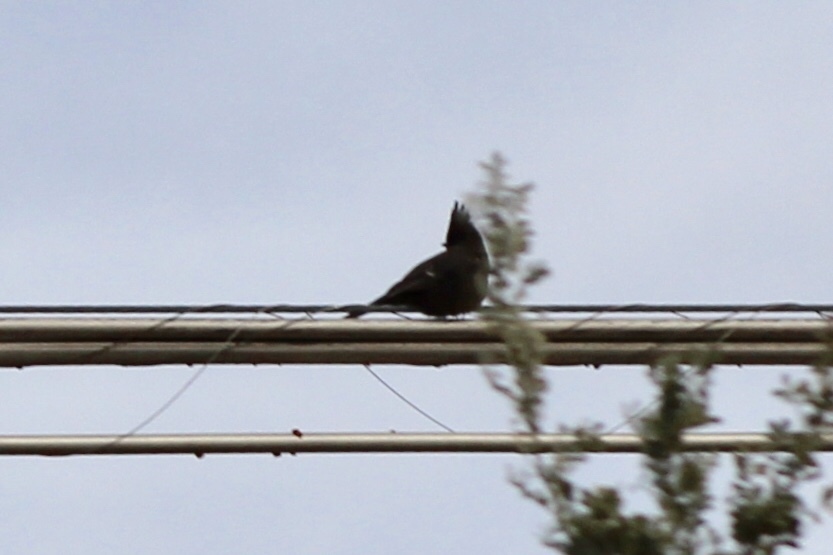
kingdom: Animalia
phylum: Chordata
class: Aves
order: Passeriformes
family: Ptilogonatidae
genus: Phainopepla
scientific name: Phainopepla nitens
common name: Phainopepla
